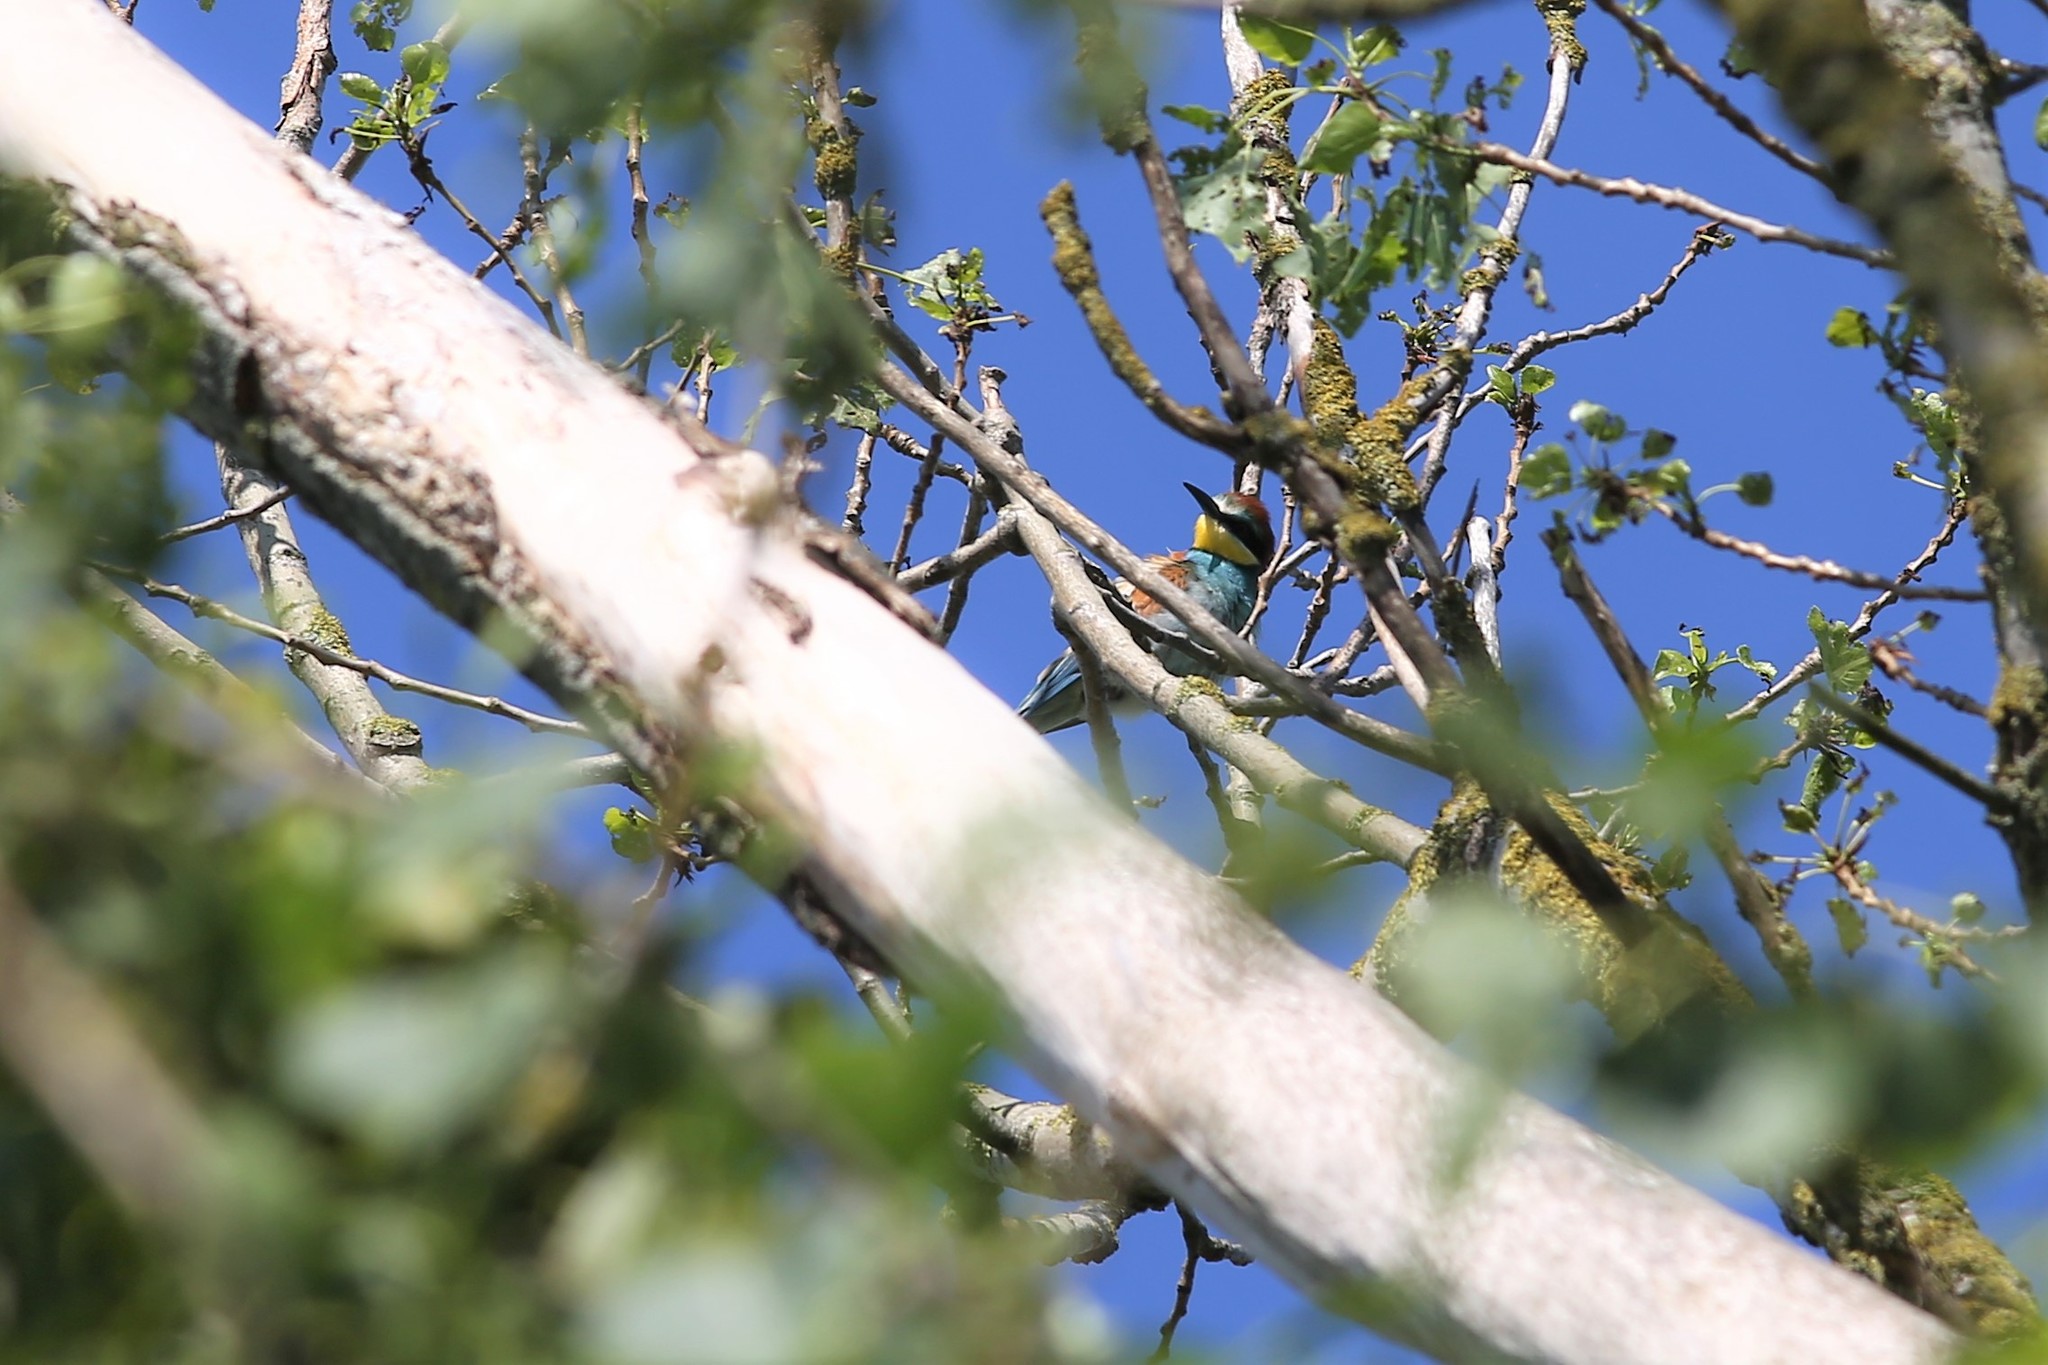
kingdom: Animalia
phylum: Chordata
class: Aves
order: Coraciiformes
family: Meropidae
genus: Merops
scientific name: Merops apiaster
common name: European bee-eater
